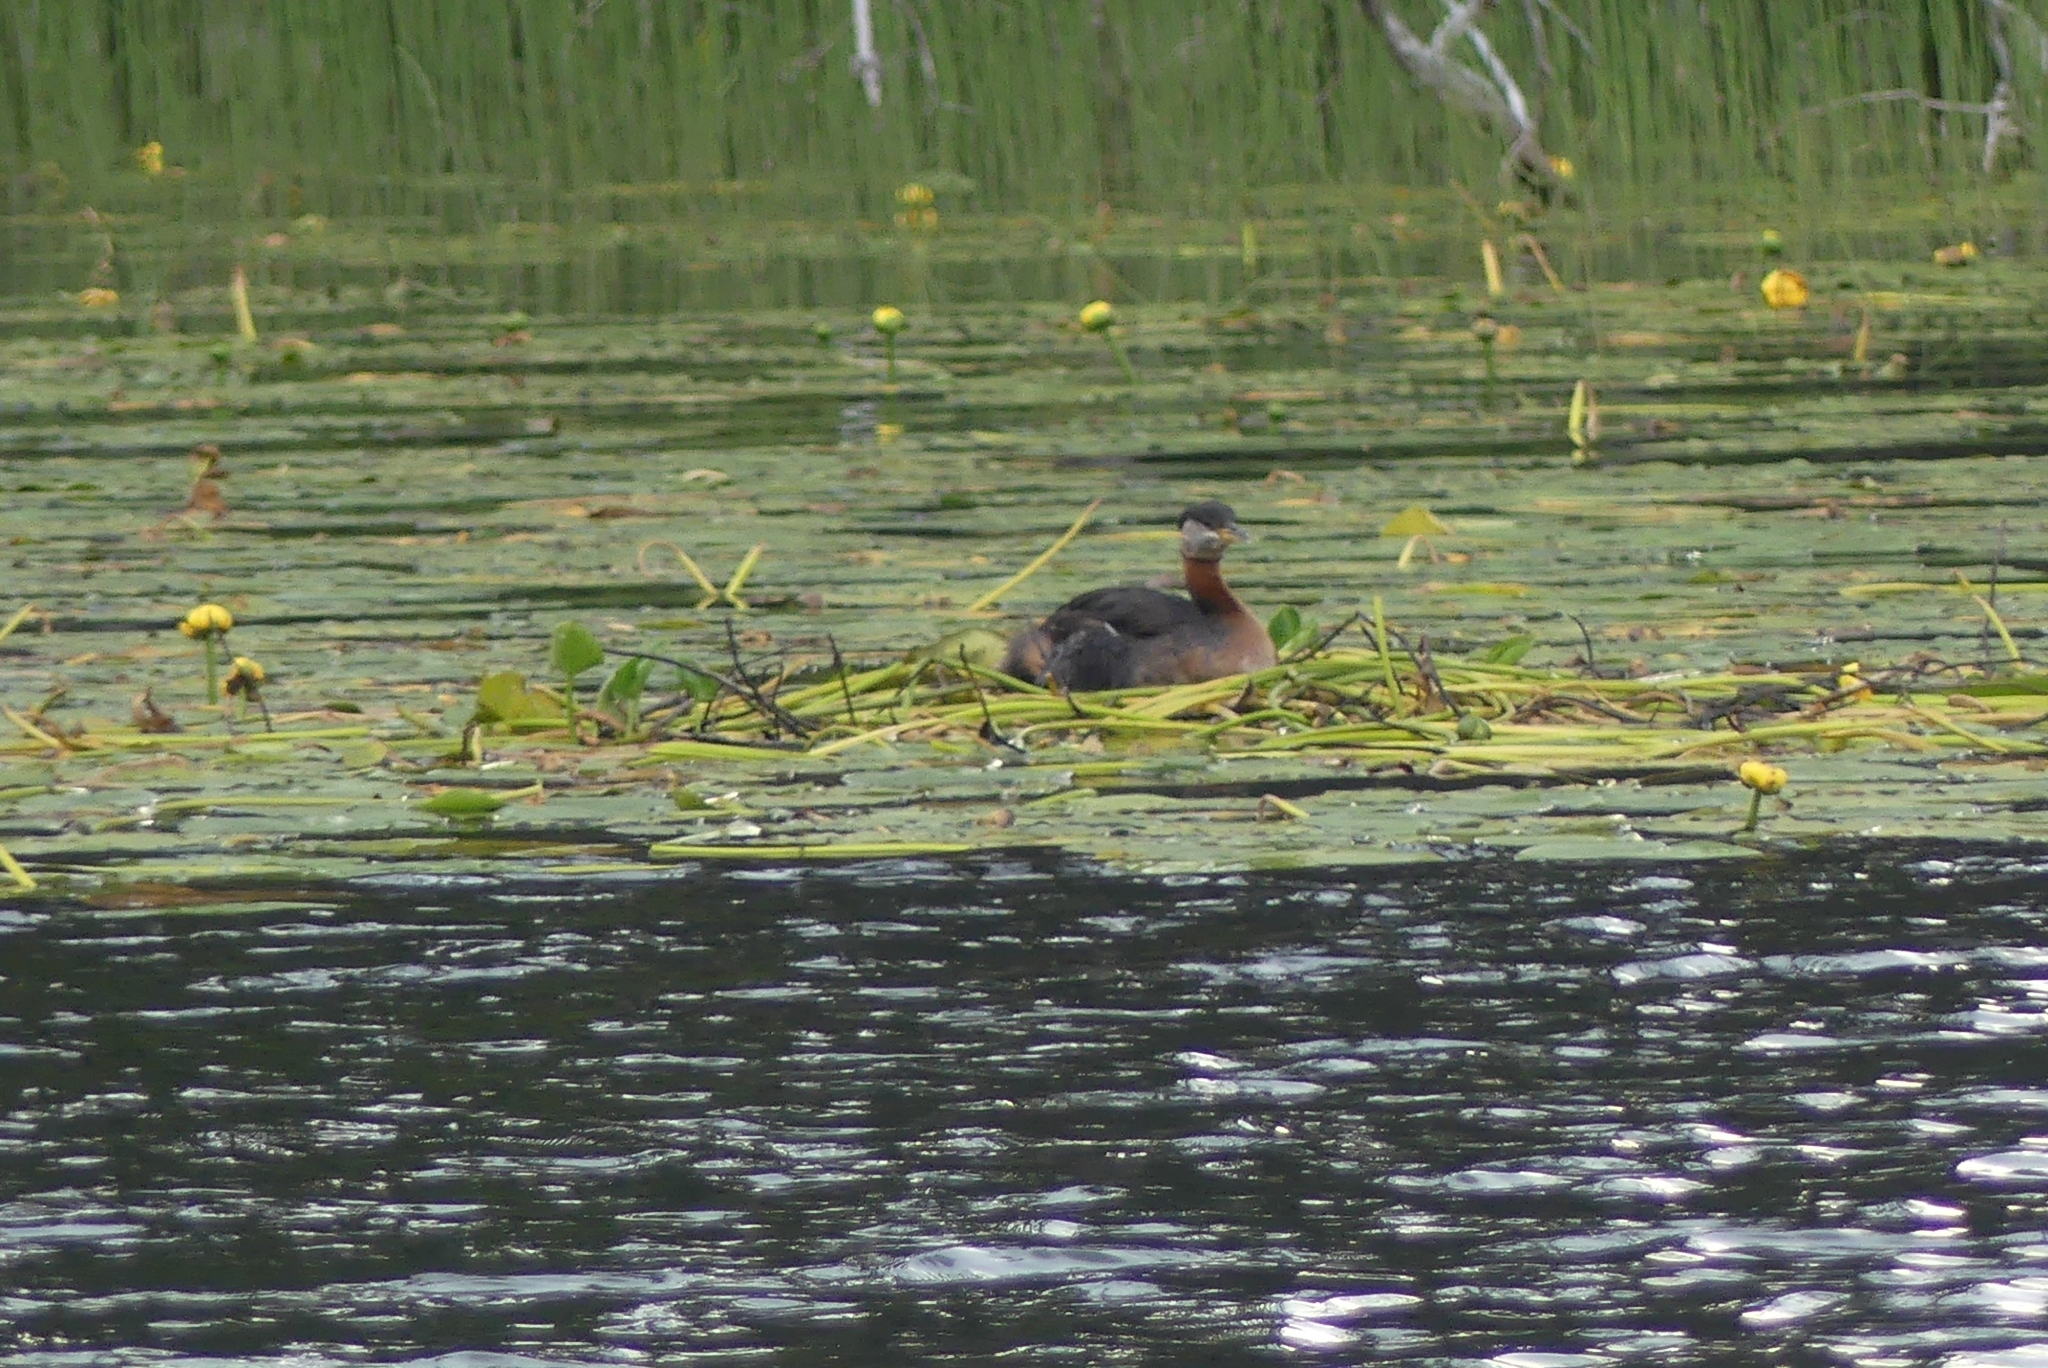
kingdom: Animalia
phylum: Chordata
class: Aves
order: Podicipediformes
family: Podicipedidae
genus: Podiceps
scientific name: Podiceps grisegena
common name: Red-necked grebe
